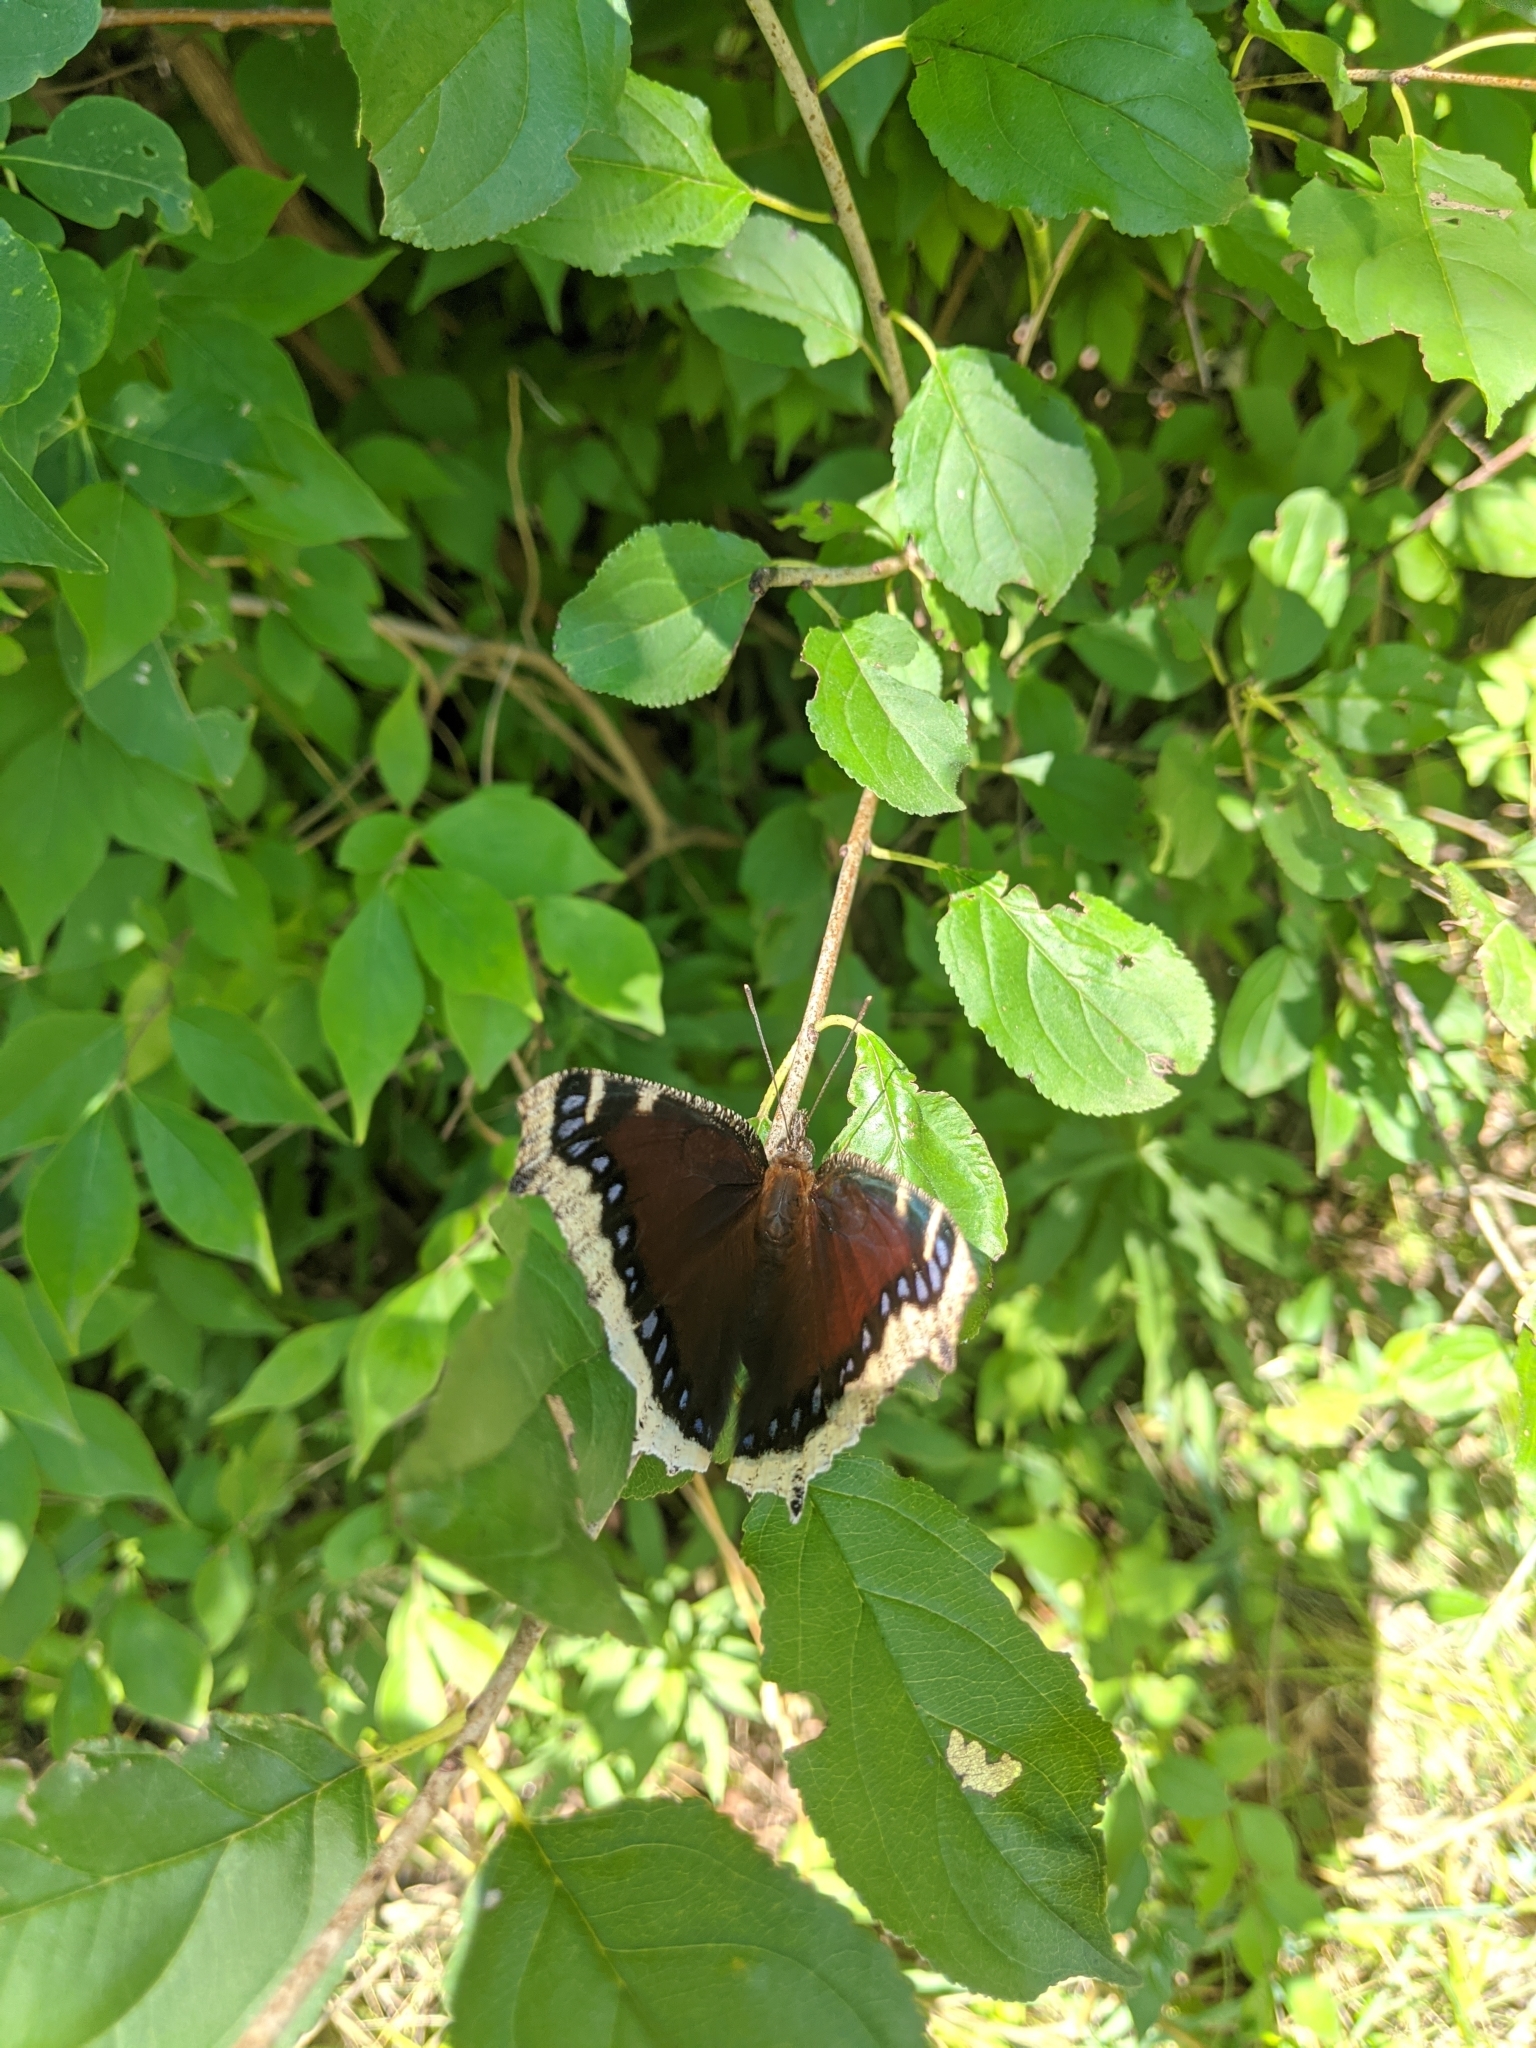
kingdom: Animalia
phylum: Arthropoda
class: Insecta
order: Lepidoptera
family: Nymphalidae
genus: Nymphalis
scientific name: Nymphalis antiopa
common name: Camberwell beauty
